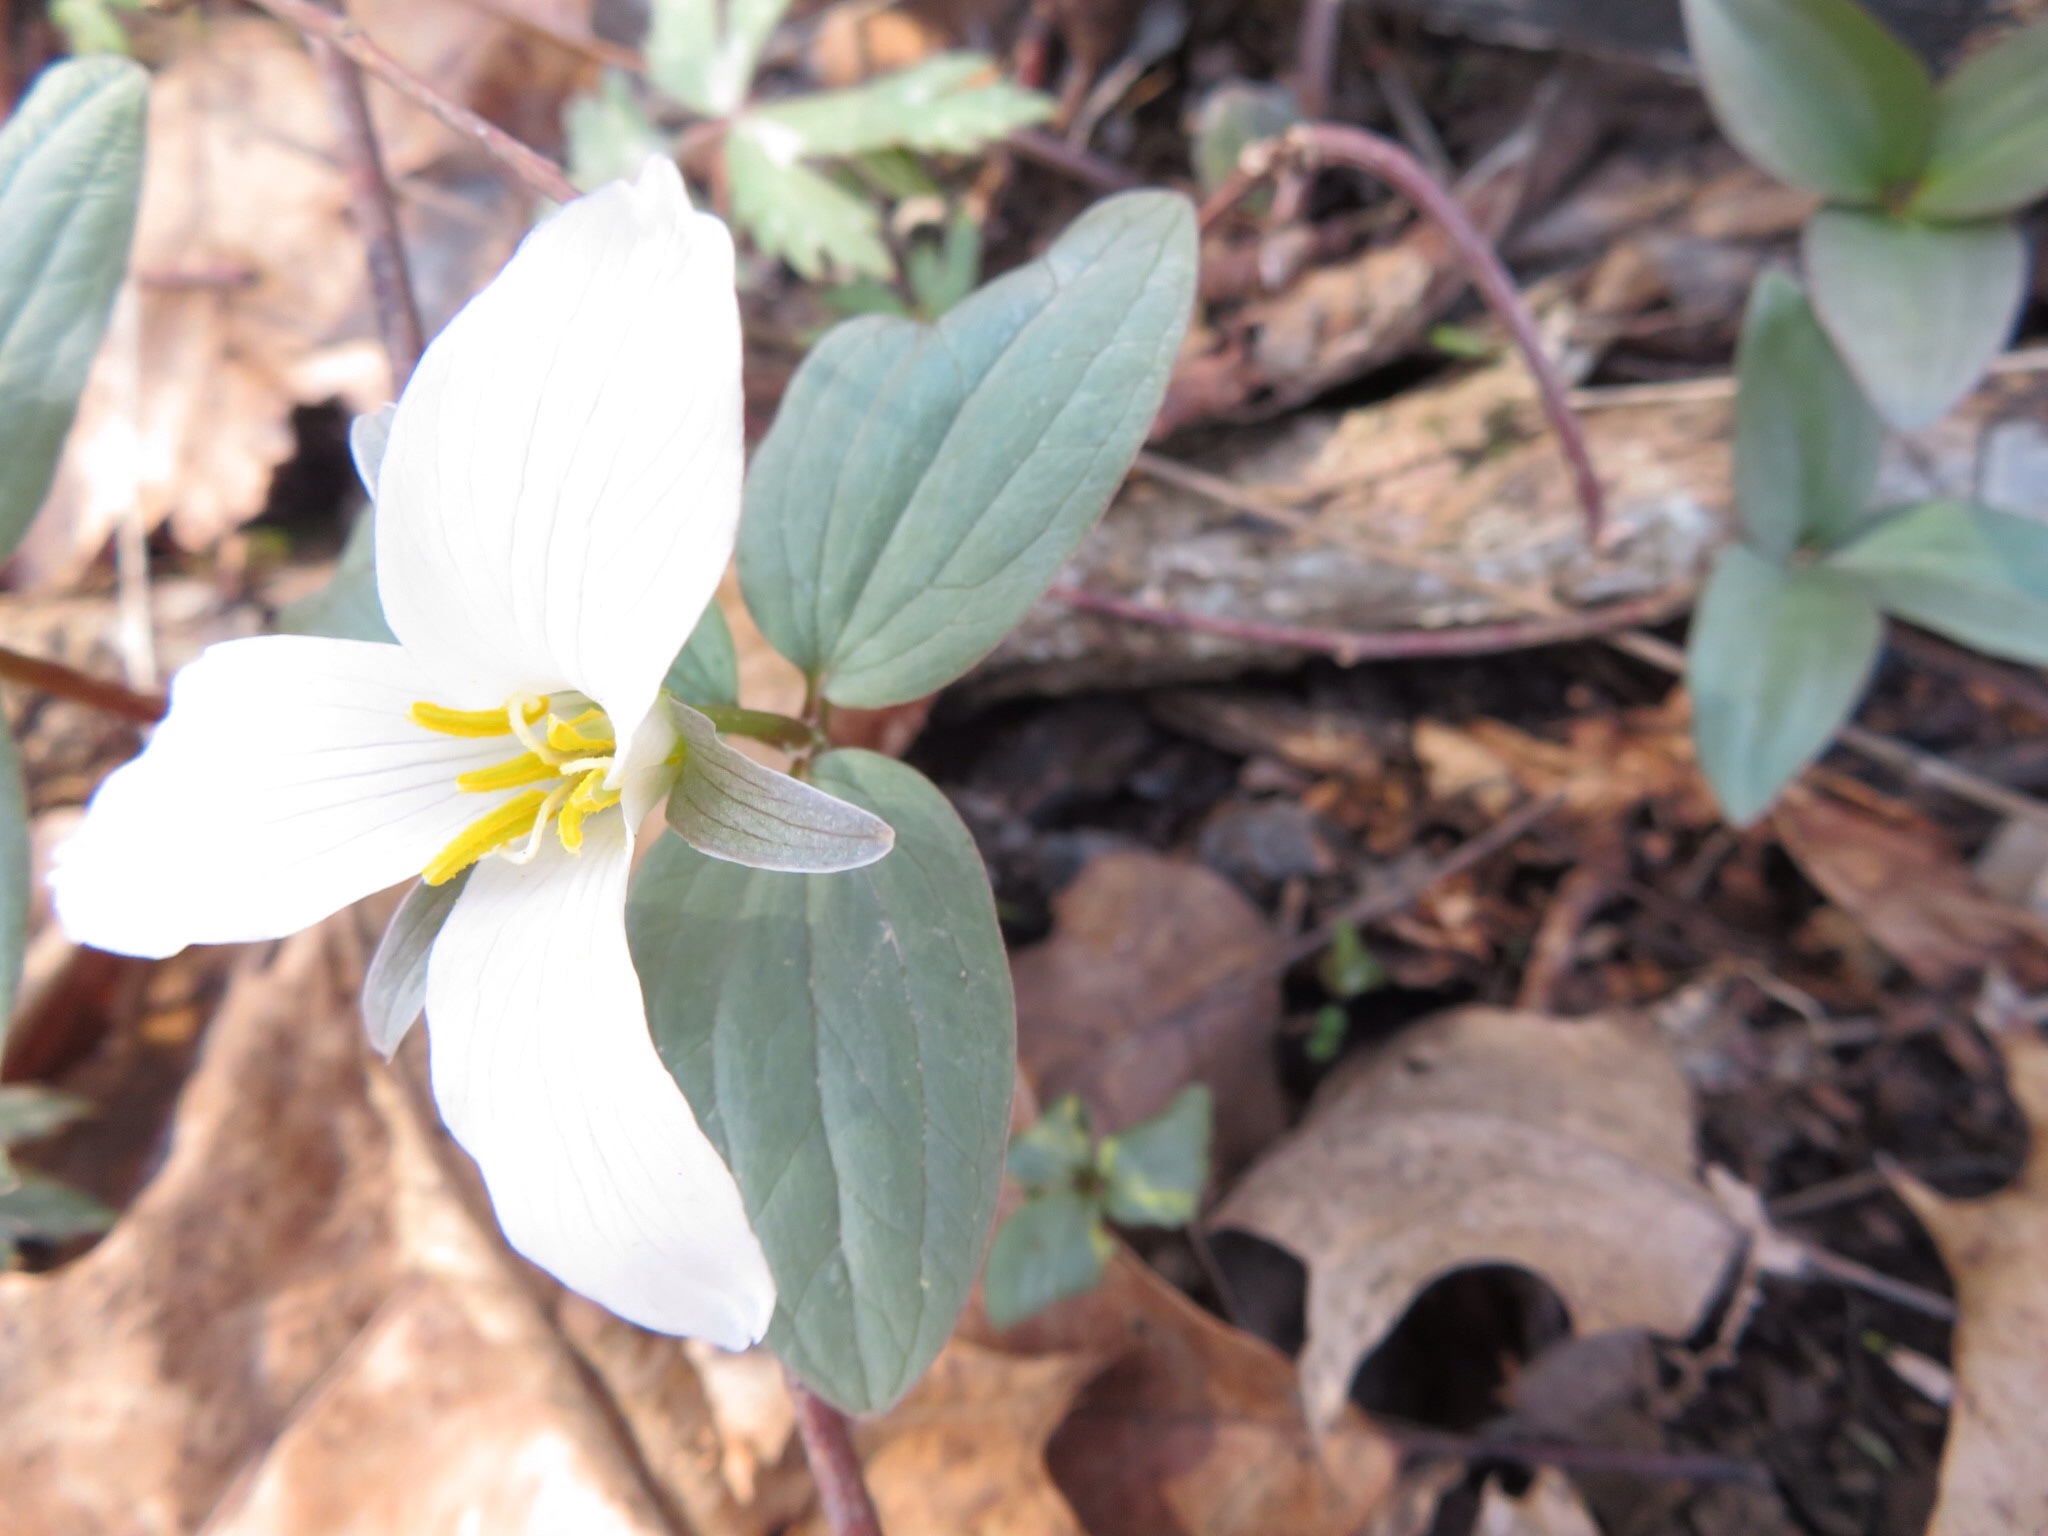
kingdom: Plantae
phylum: Tracheophyta
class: Liliopsida
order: Liliales
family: Melanthiaceae
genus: Trillium
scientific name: Trillium nivale
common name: Dwarf white trillium
